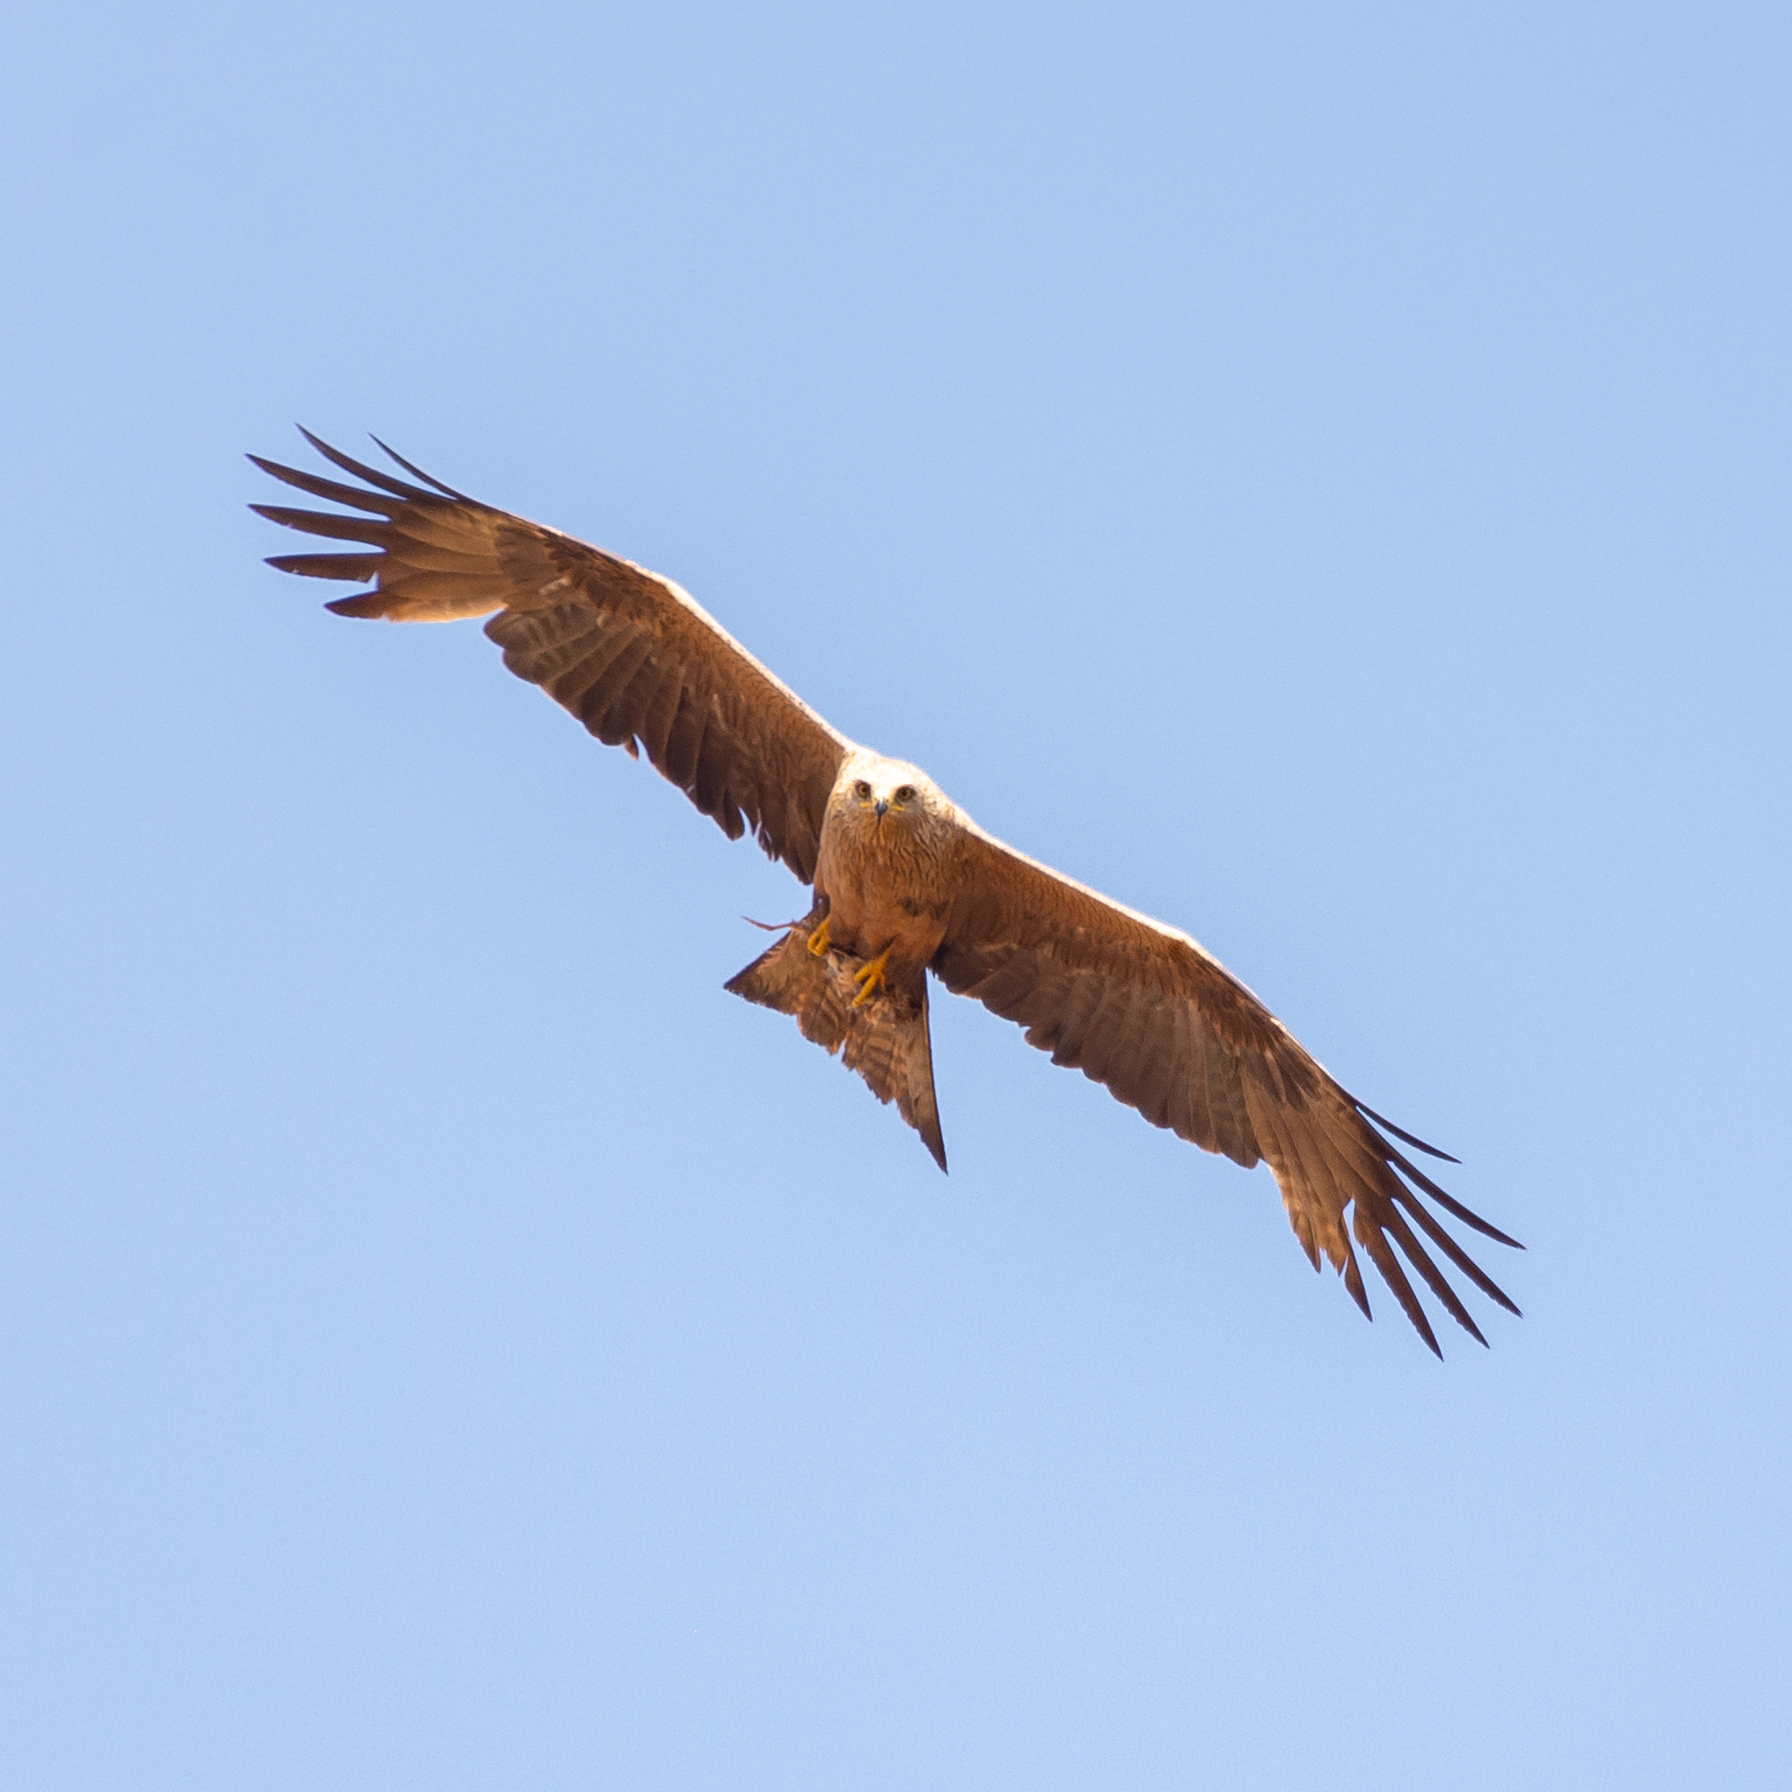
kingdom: Animalia
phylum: Chordata
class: Aves
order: Accipitriformes
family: Accipitridae
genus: Milvus
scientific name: Milvus migrans
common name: Black kite
